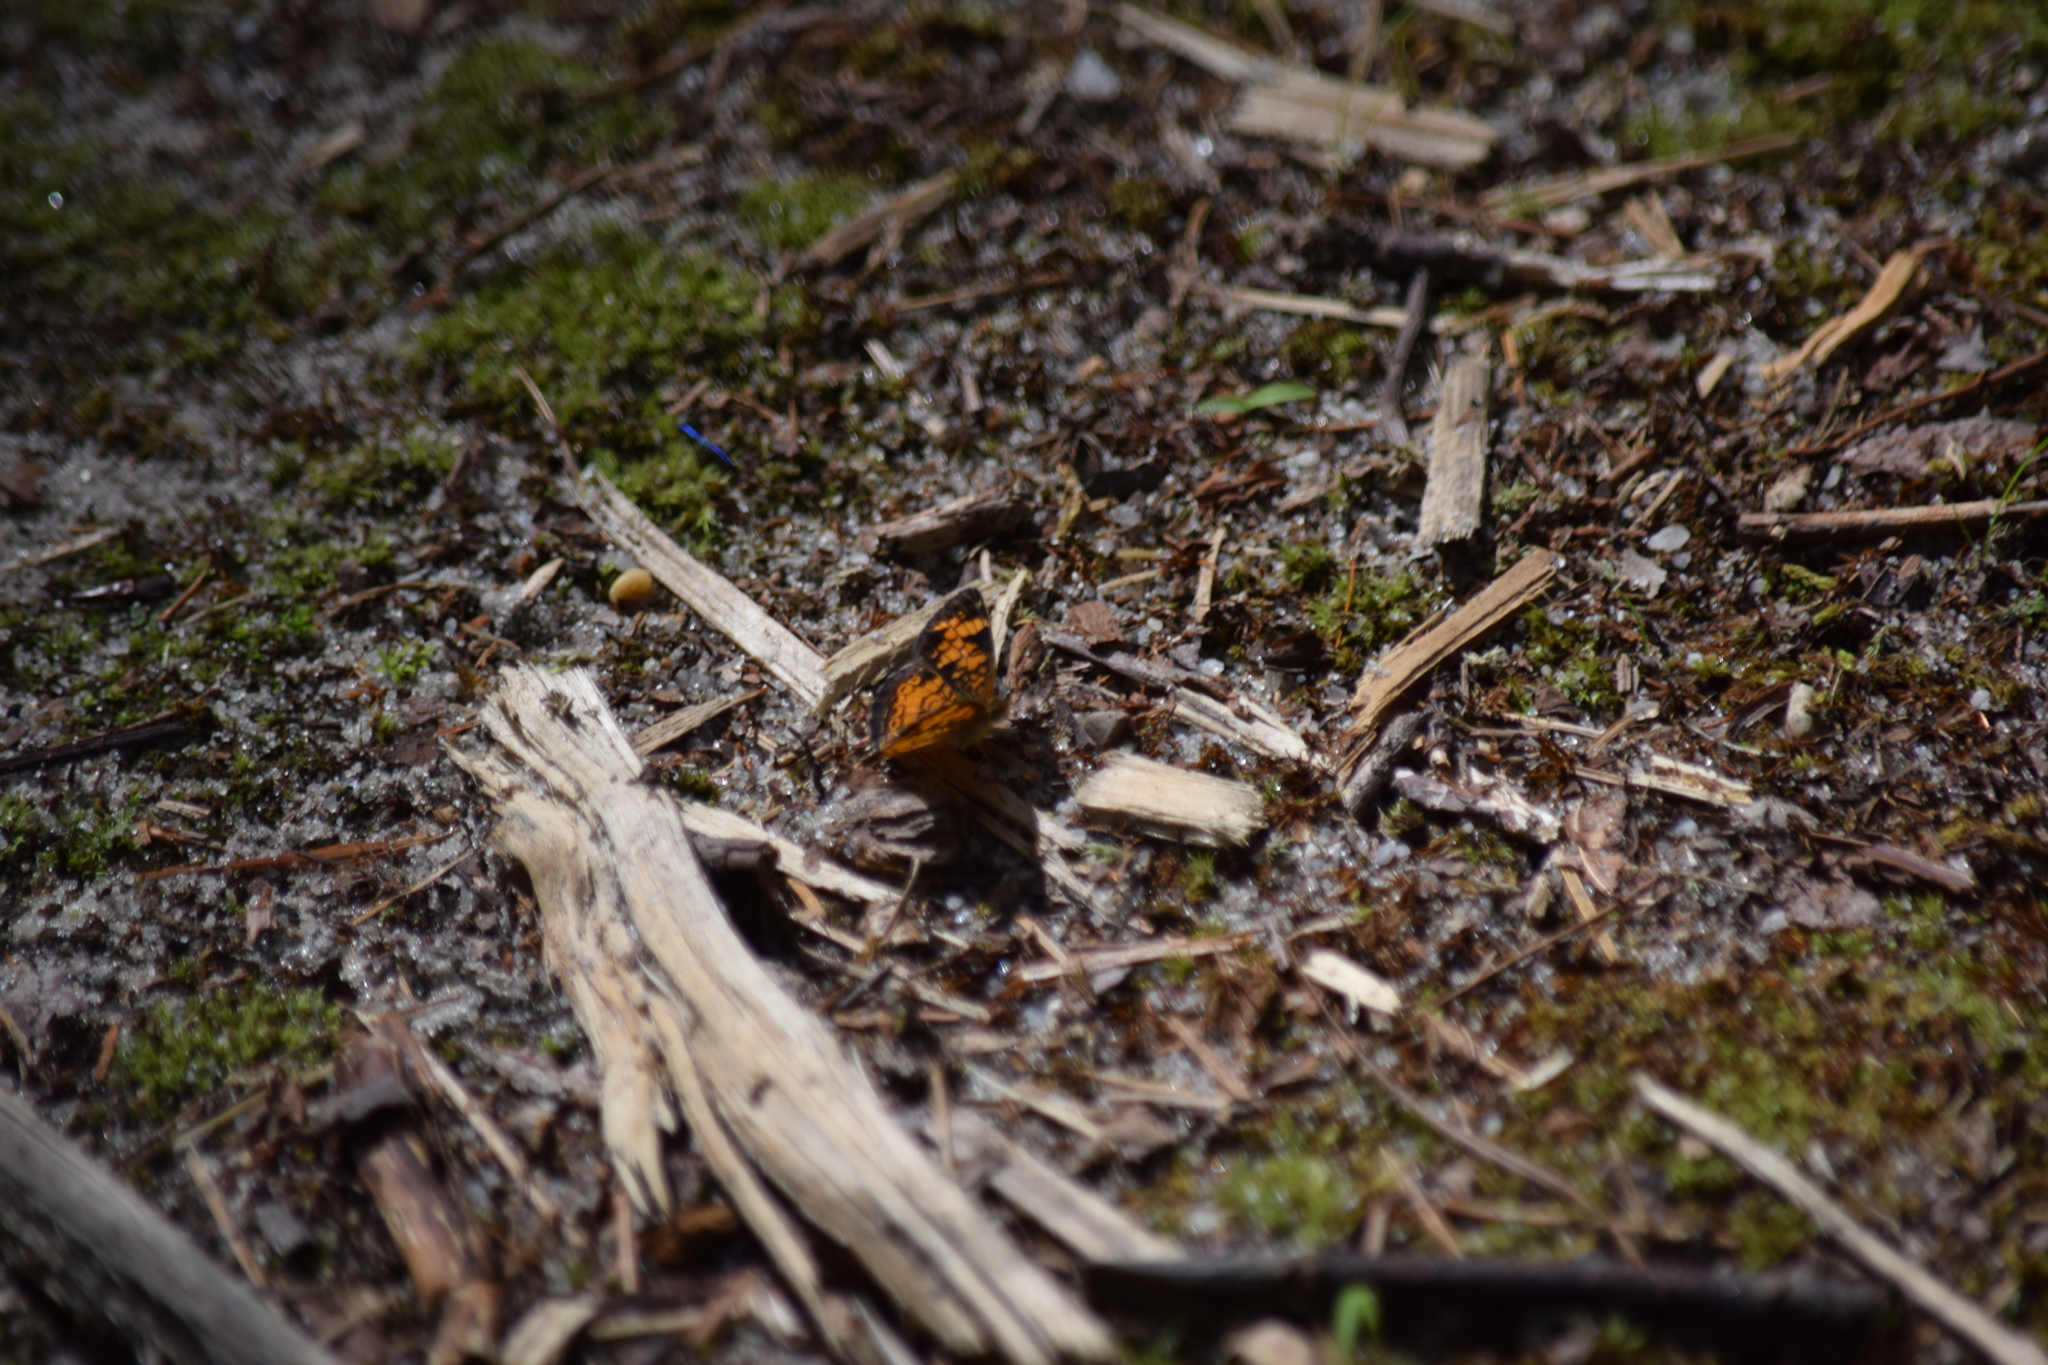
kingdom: Animalia
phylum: Arthropoda
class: Insecta
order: Lepidoptera
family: Nymphalidae
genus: Phyciodes
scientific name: Phyciodes tharos
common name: Pearl crescent
